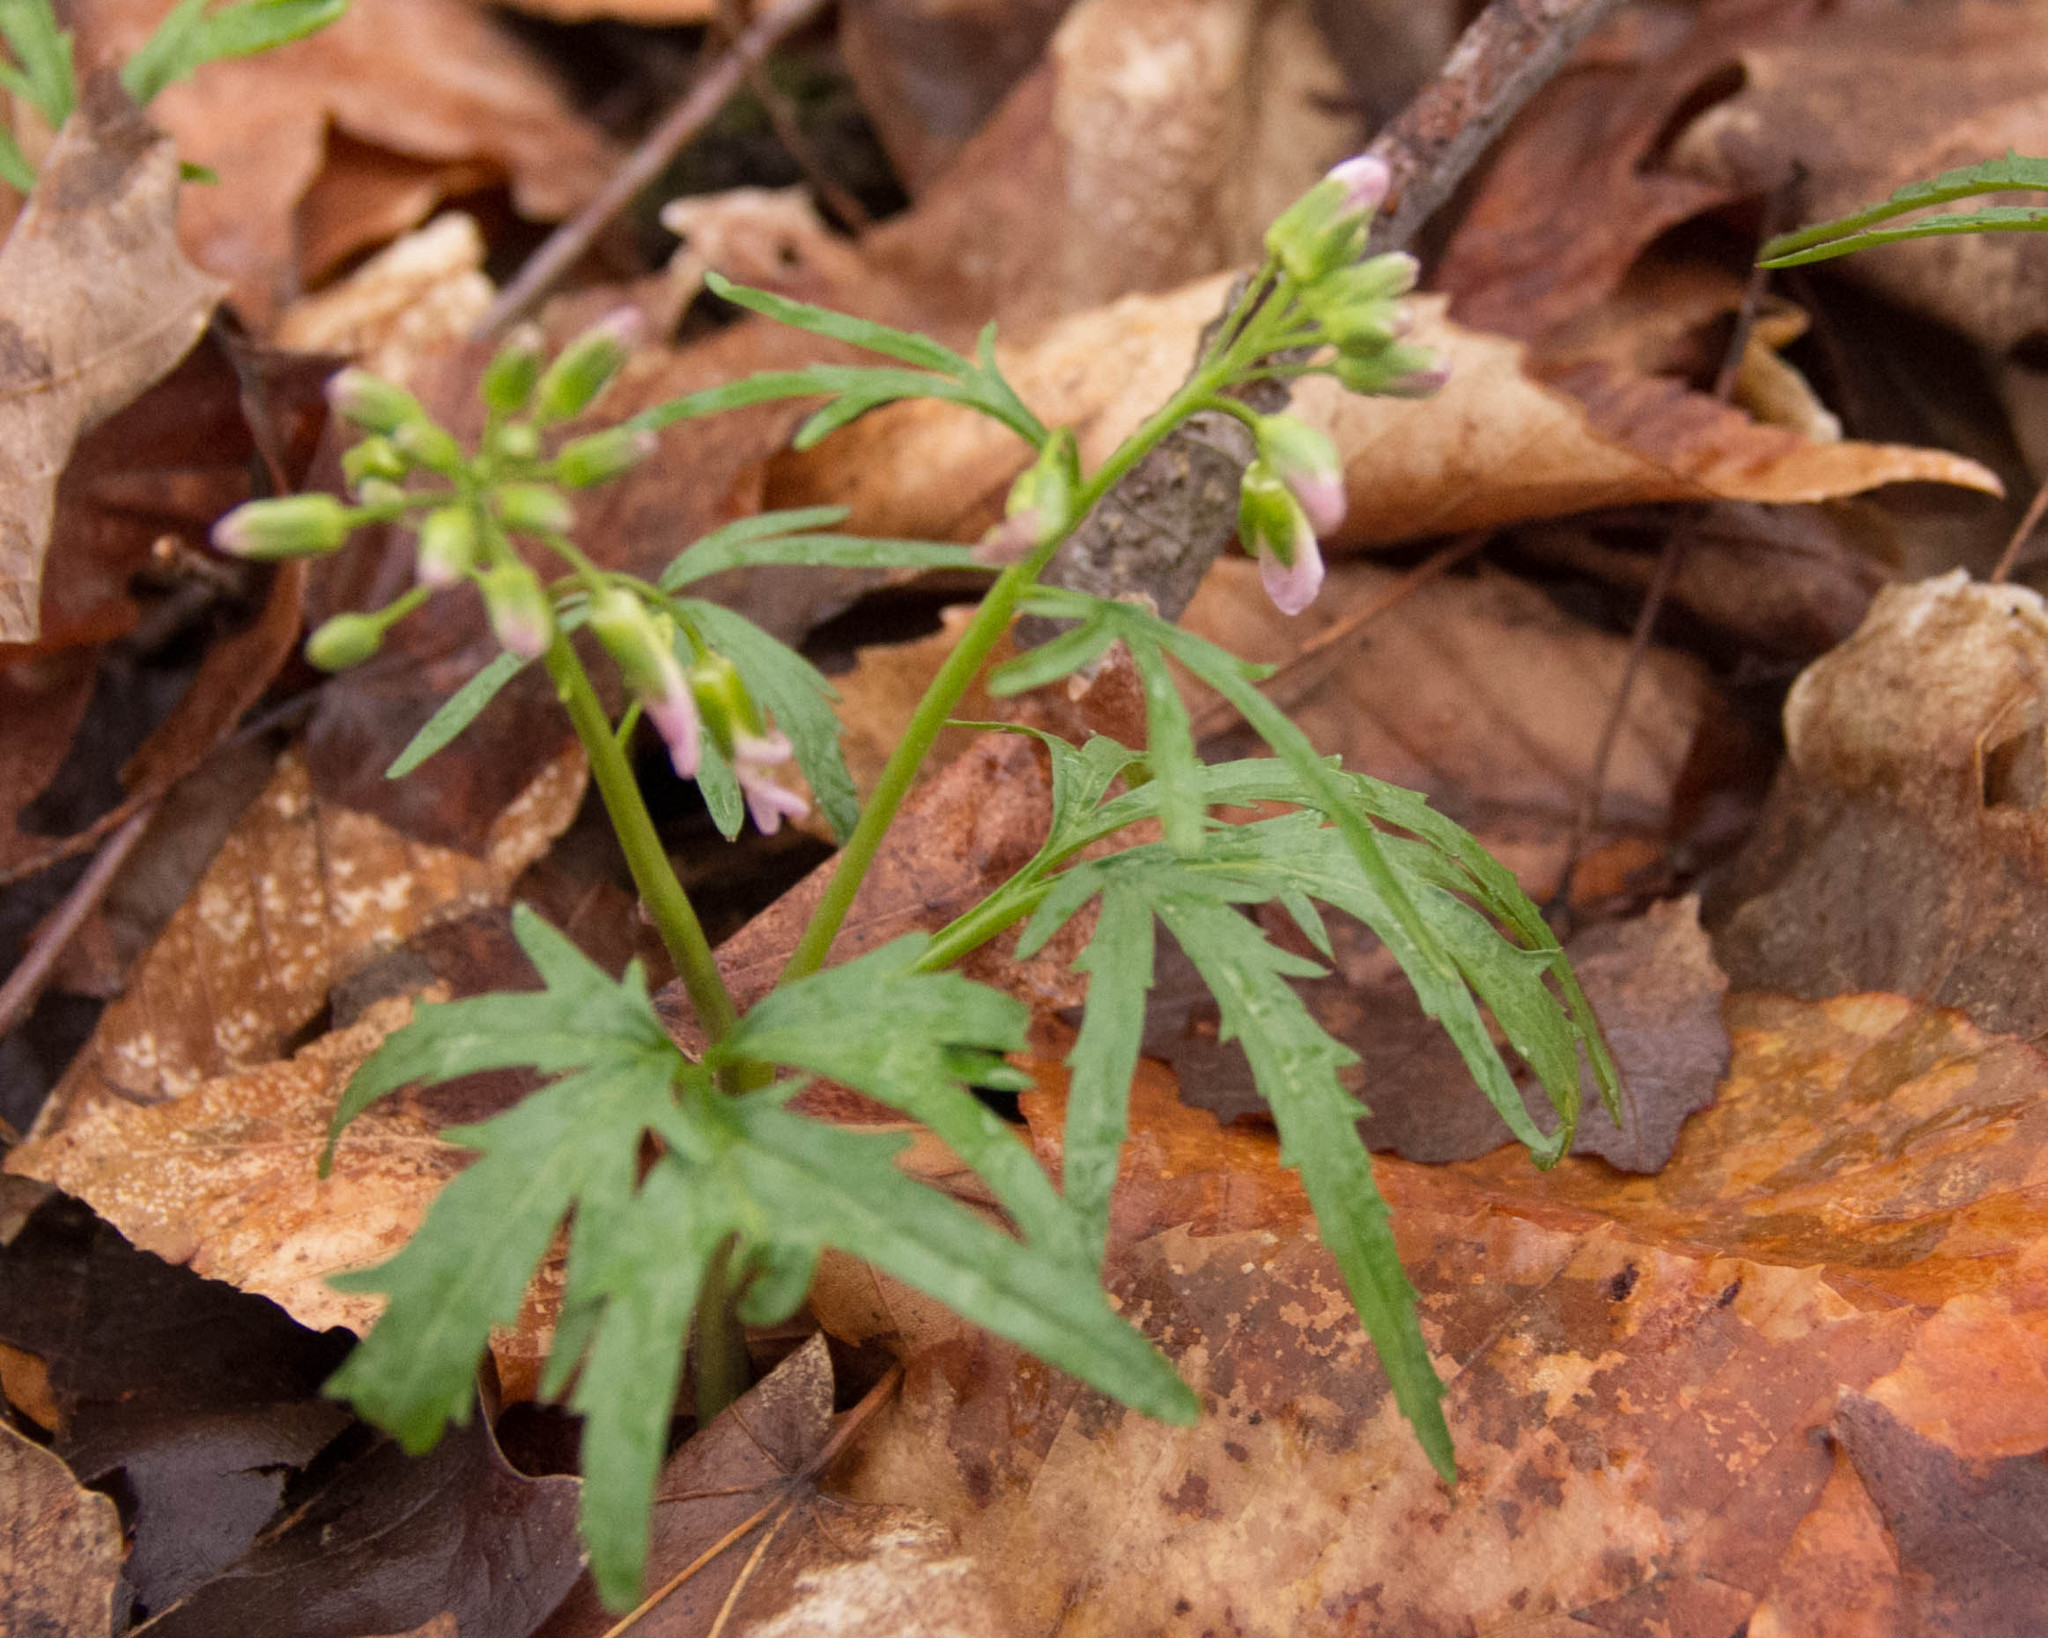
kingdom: Plantae
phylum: Tracheophyta
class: Magnoliopsida
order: Brassicales
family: Brassicaceae
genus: Cardamine
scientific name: Cardamine concatenata
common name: Cut-leaf toothcup
